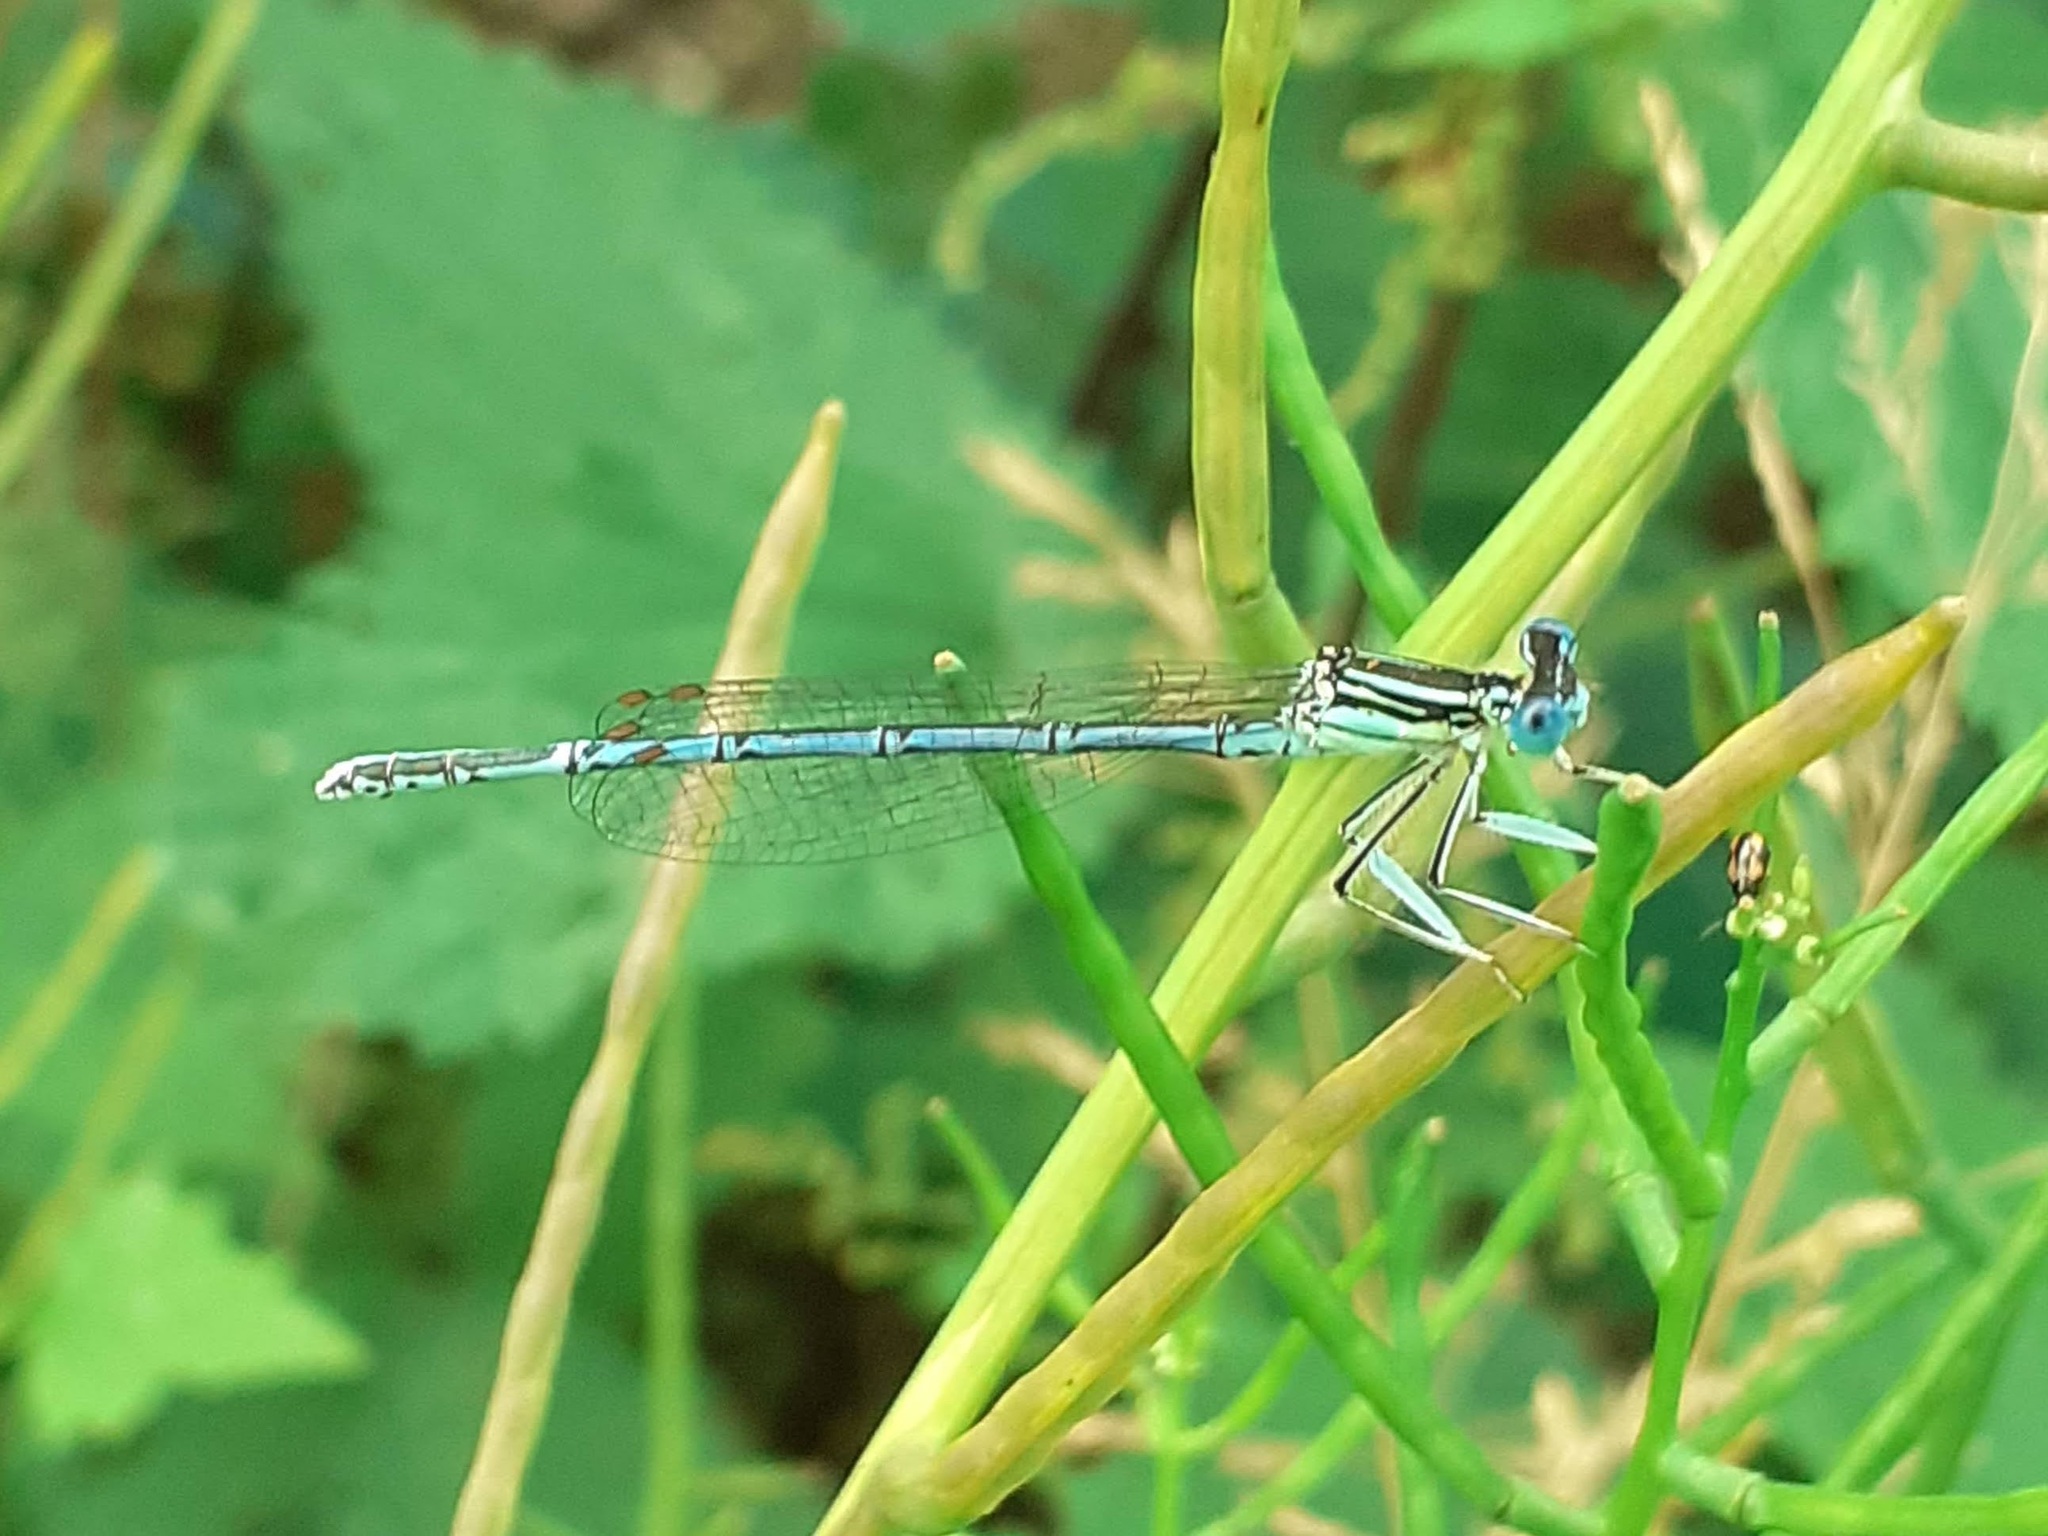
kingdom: Animalia
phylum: Arthropoda
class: Insecta
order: Odonata
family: Platycnemididae
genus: Platycnemis
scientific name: Platycnemis pennipes
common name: White-legged damselfly
